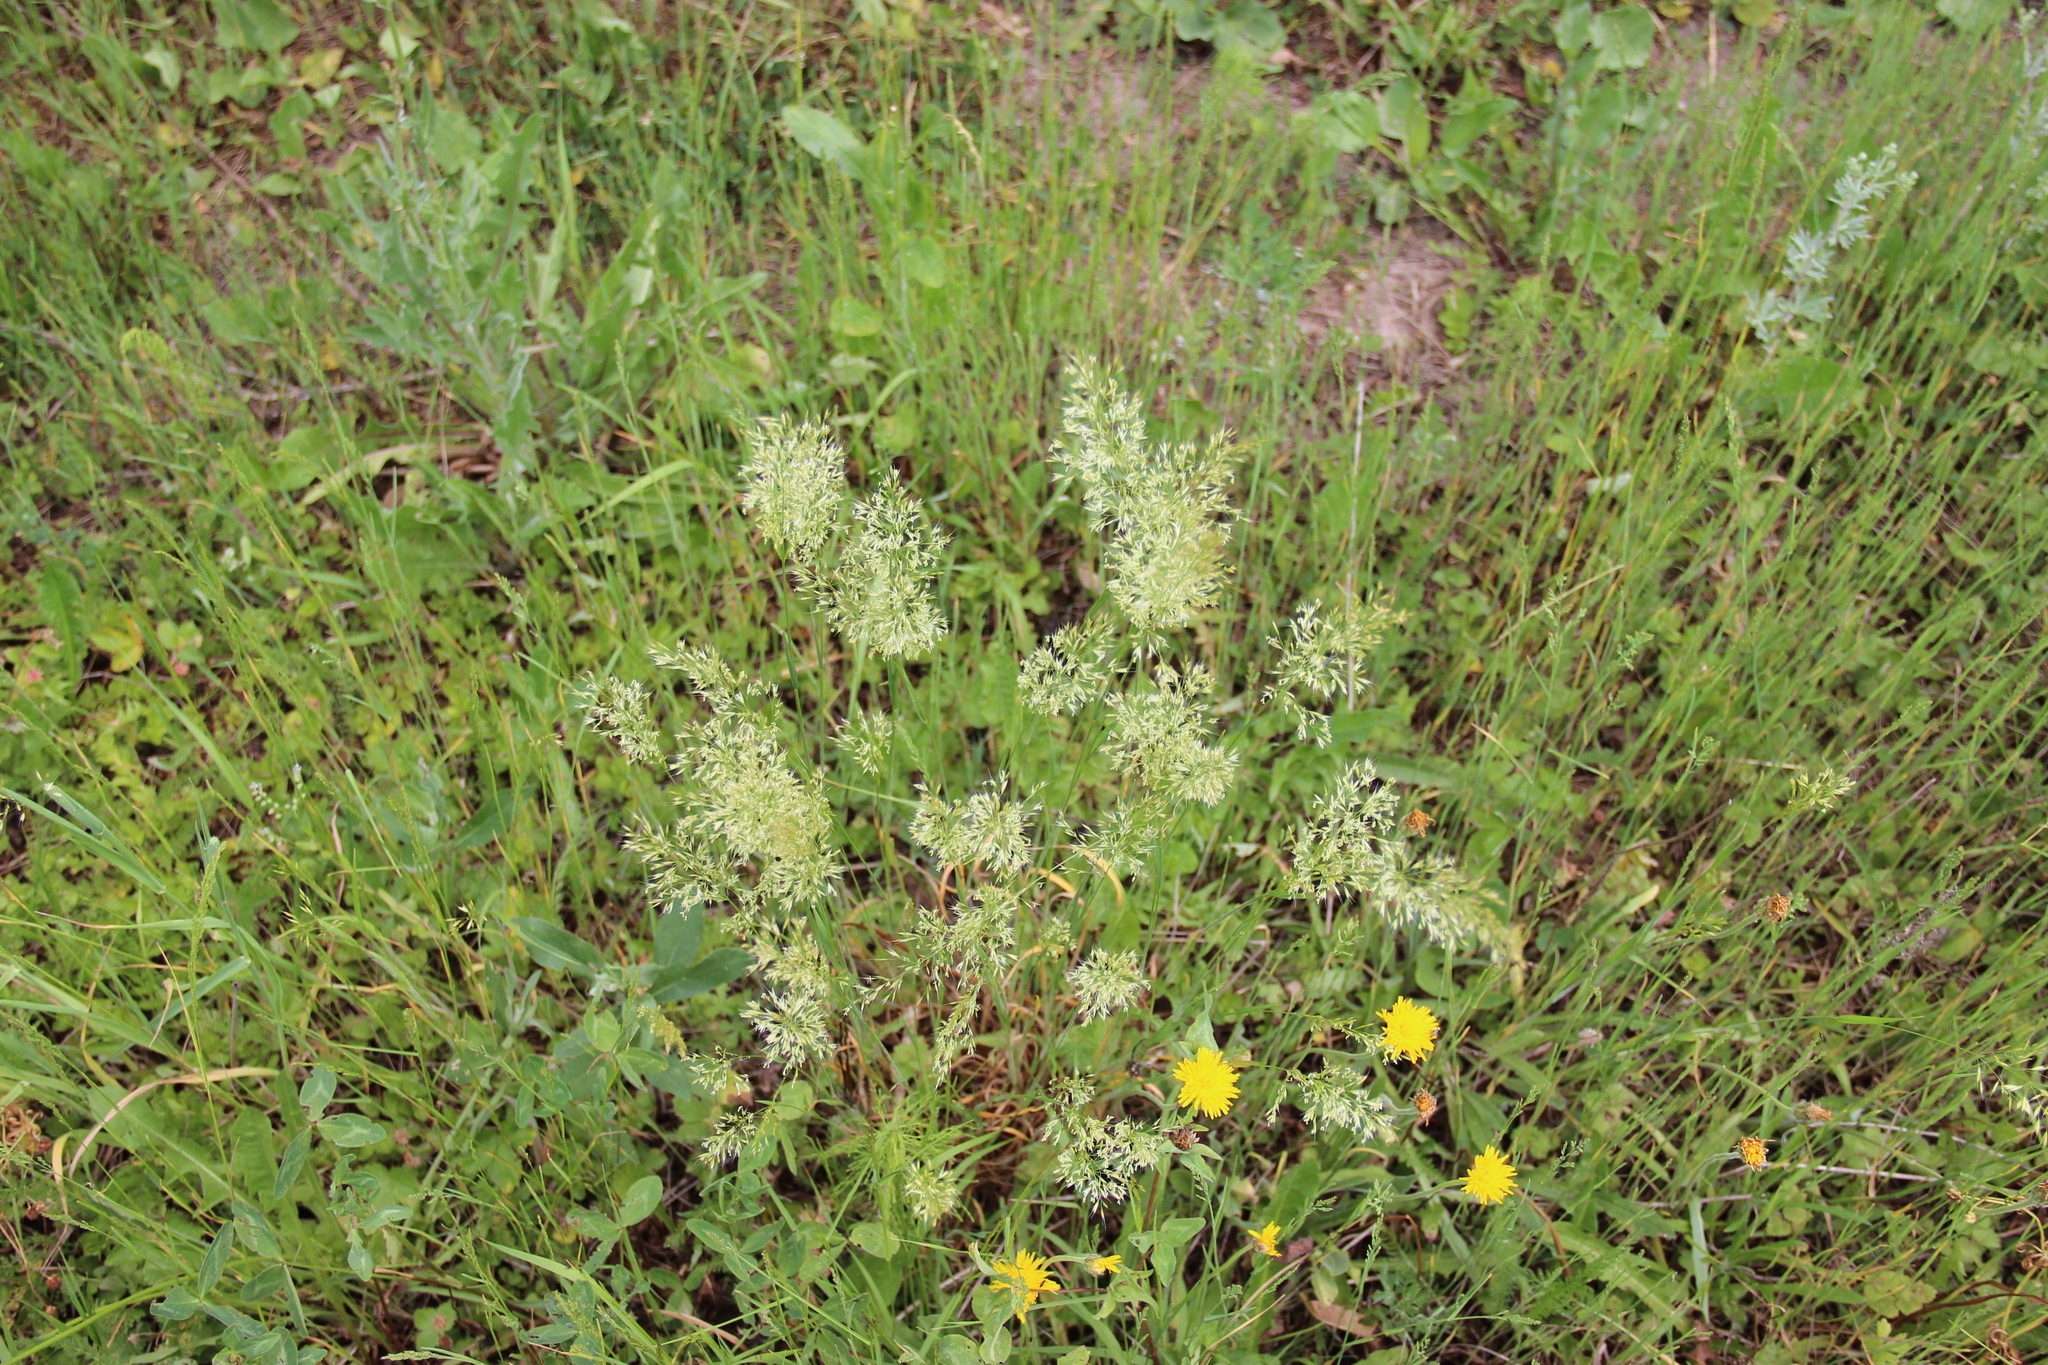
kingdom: Plantae
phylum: Tracheophyta
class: Liliopsida
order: Poales
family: Poaceae
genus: Trisetum
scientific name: Trisetum flavescens
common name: Yellow oat-grass
